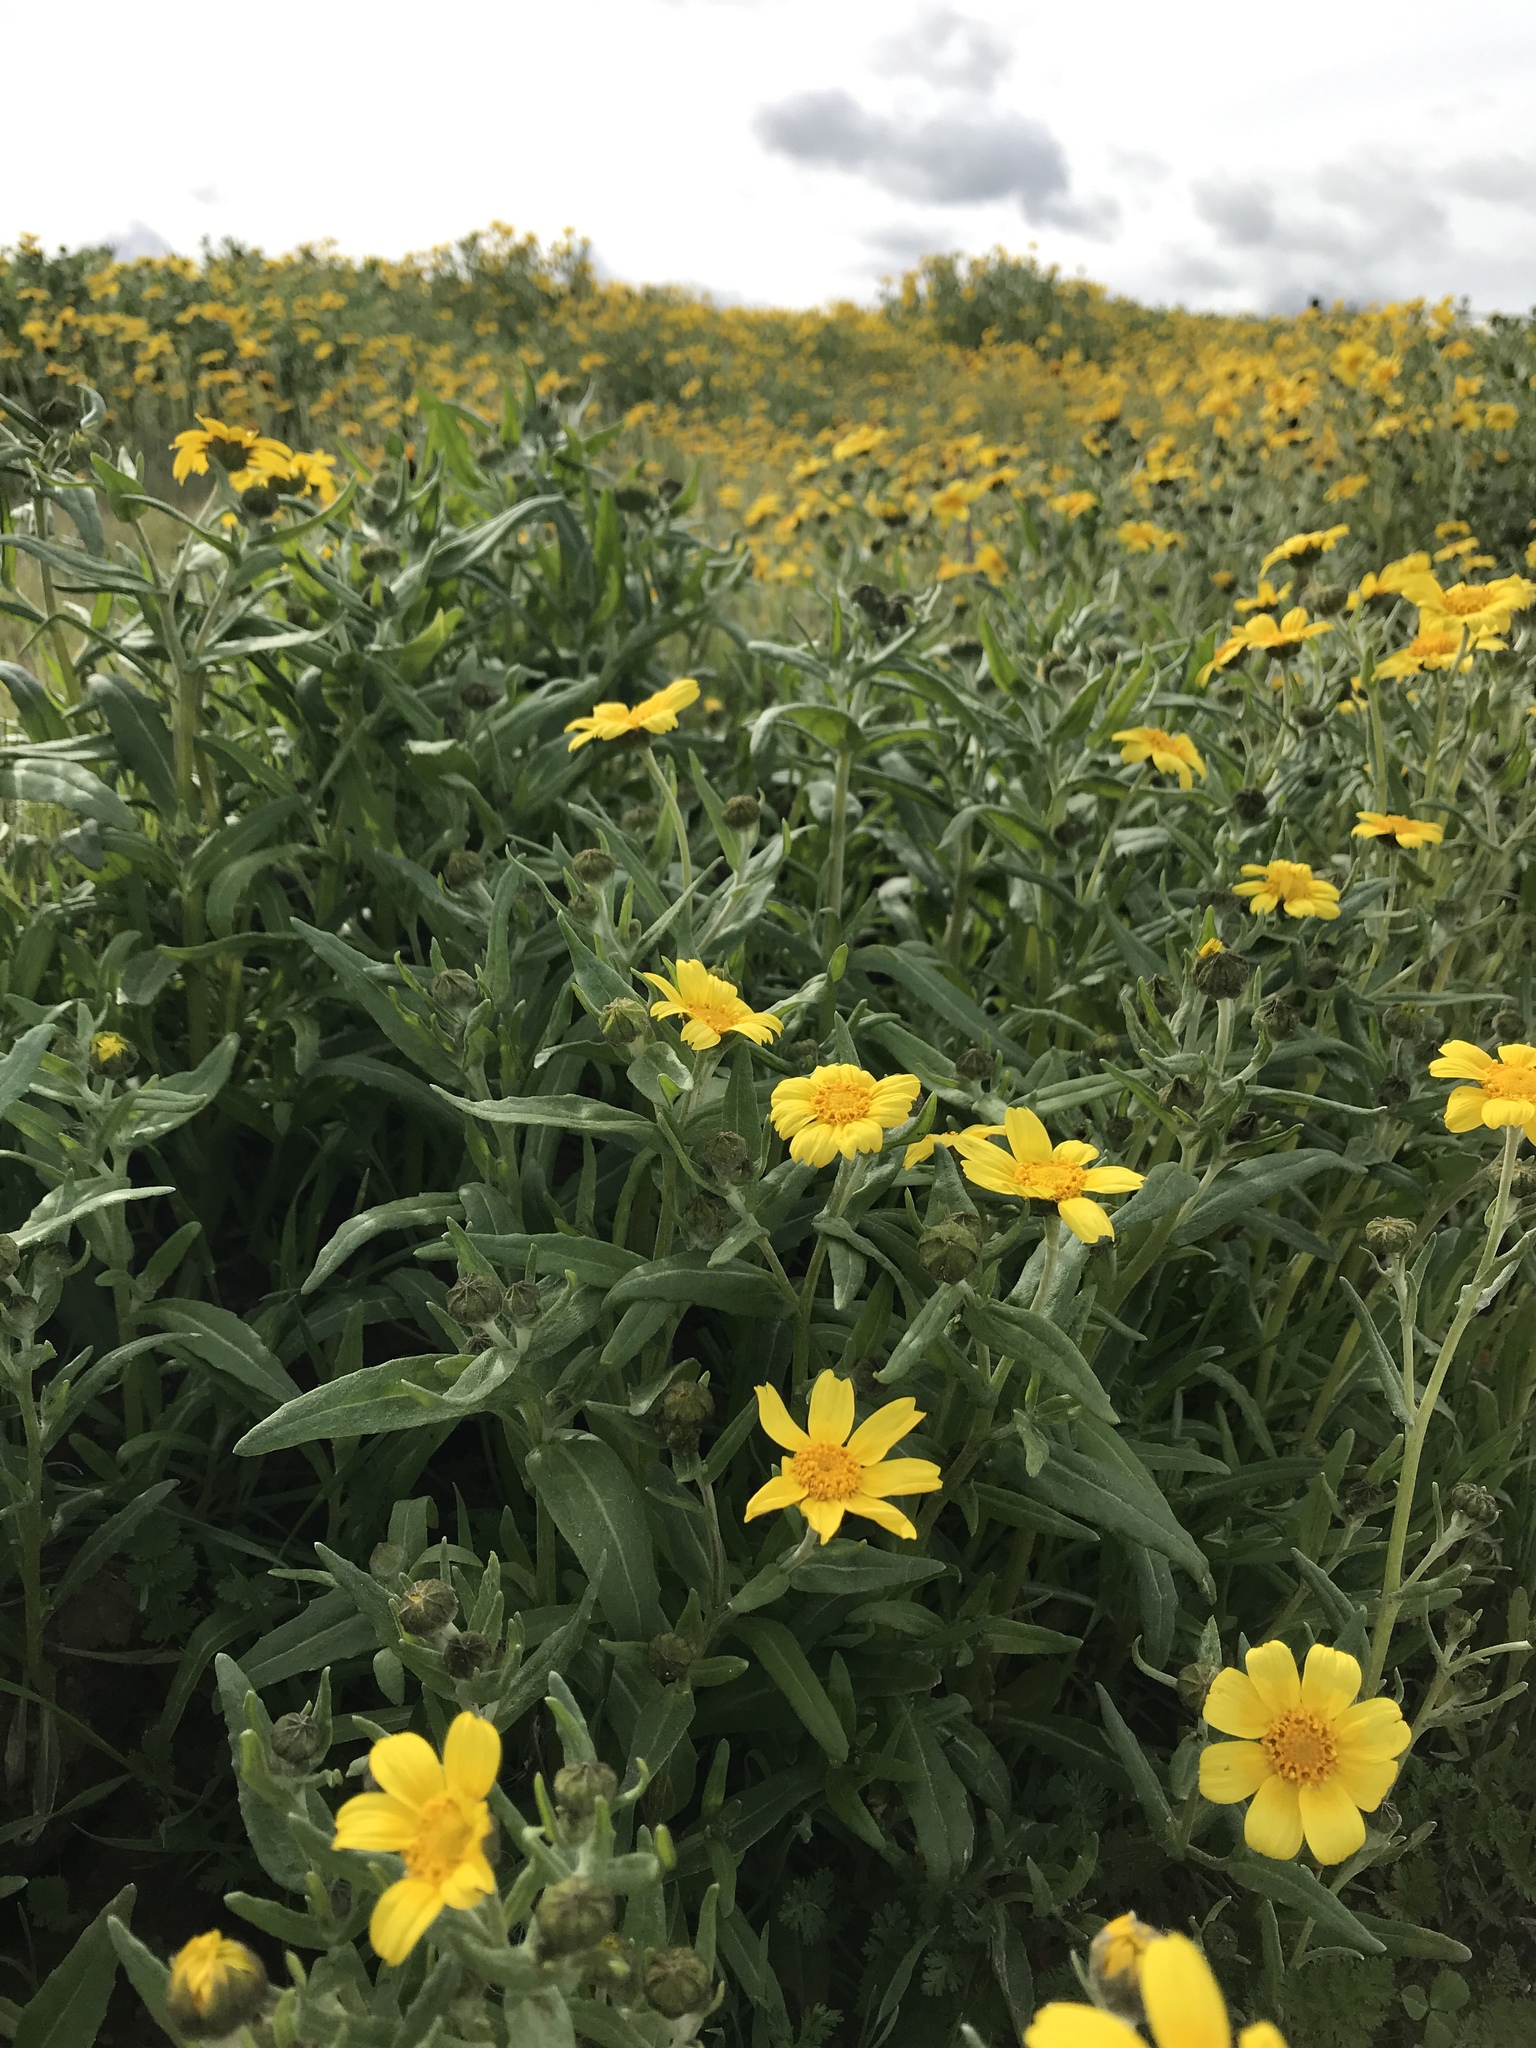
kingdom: Plantae
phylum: Tracheophyta
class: Magnoliopsida
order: Asterales
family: Asteraceae
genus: Monolopia
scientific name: Monolopia lanceolata
